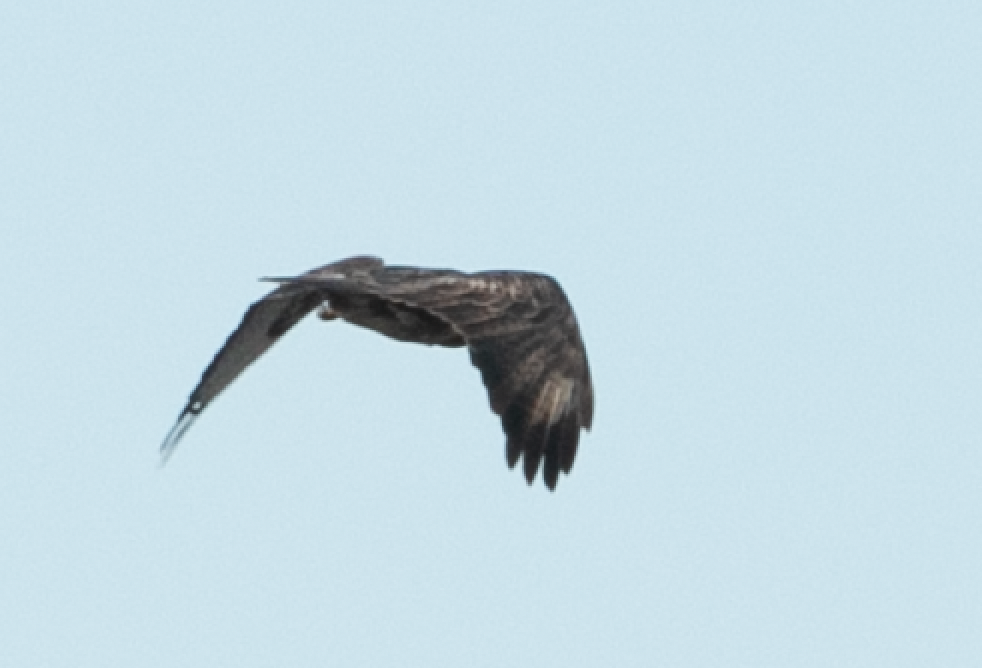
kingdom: Animalia
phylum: Chordata
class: Aves
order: Accipitriformes
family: Accipitridae
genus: Buteo
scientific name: Buteo buteo
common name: Common buzzard
